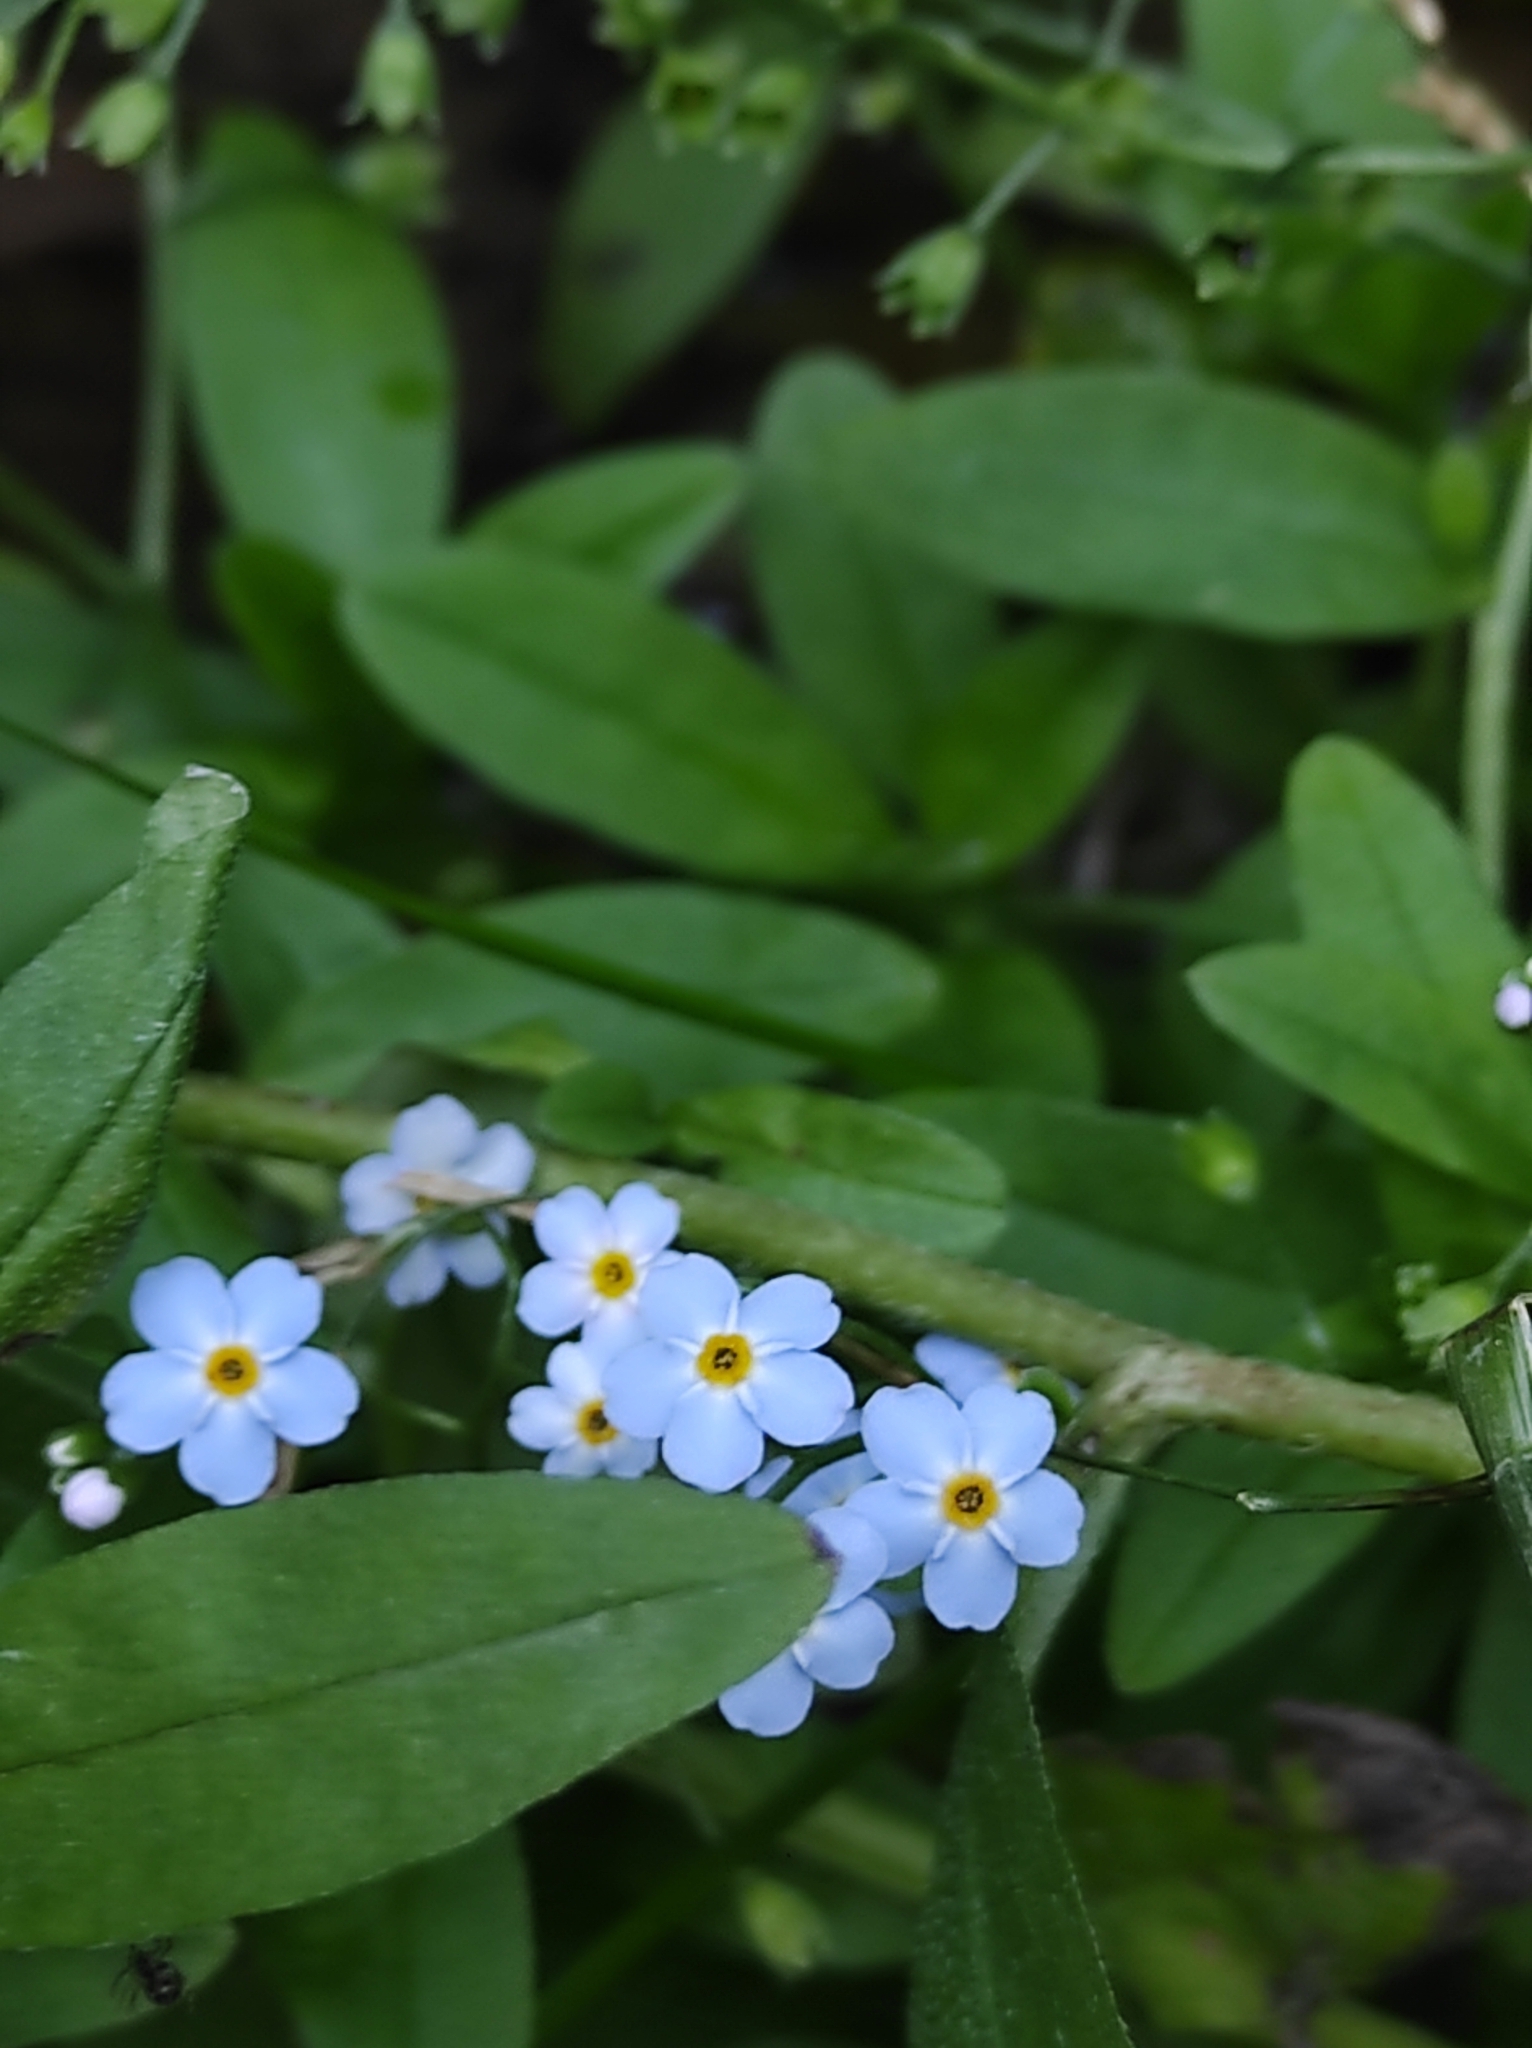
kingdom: Plantae
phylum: Tracheophyta
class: Magnoliopsida
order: Boraginales
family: Boraginaceae
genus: Myosotis
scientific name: Myosotis scorpioides
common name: Water forget-me-not
